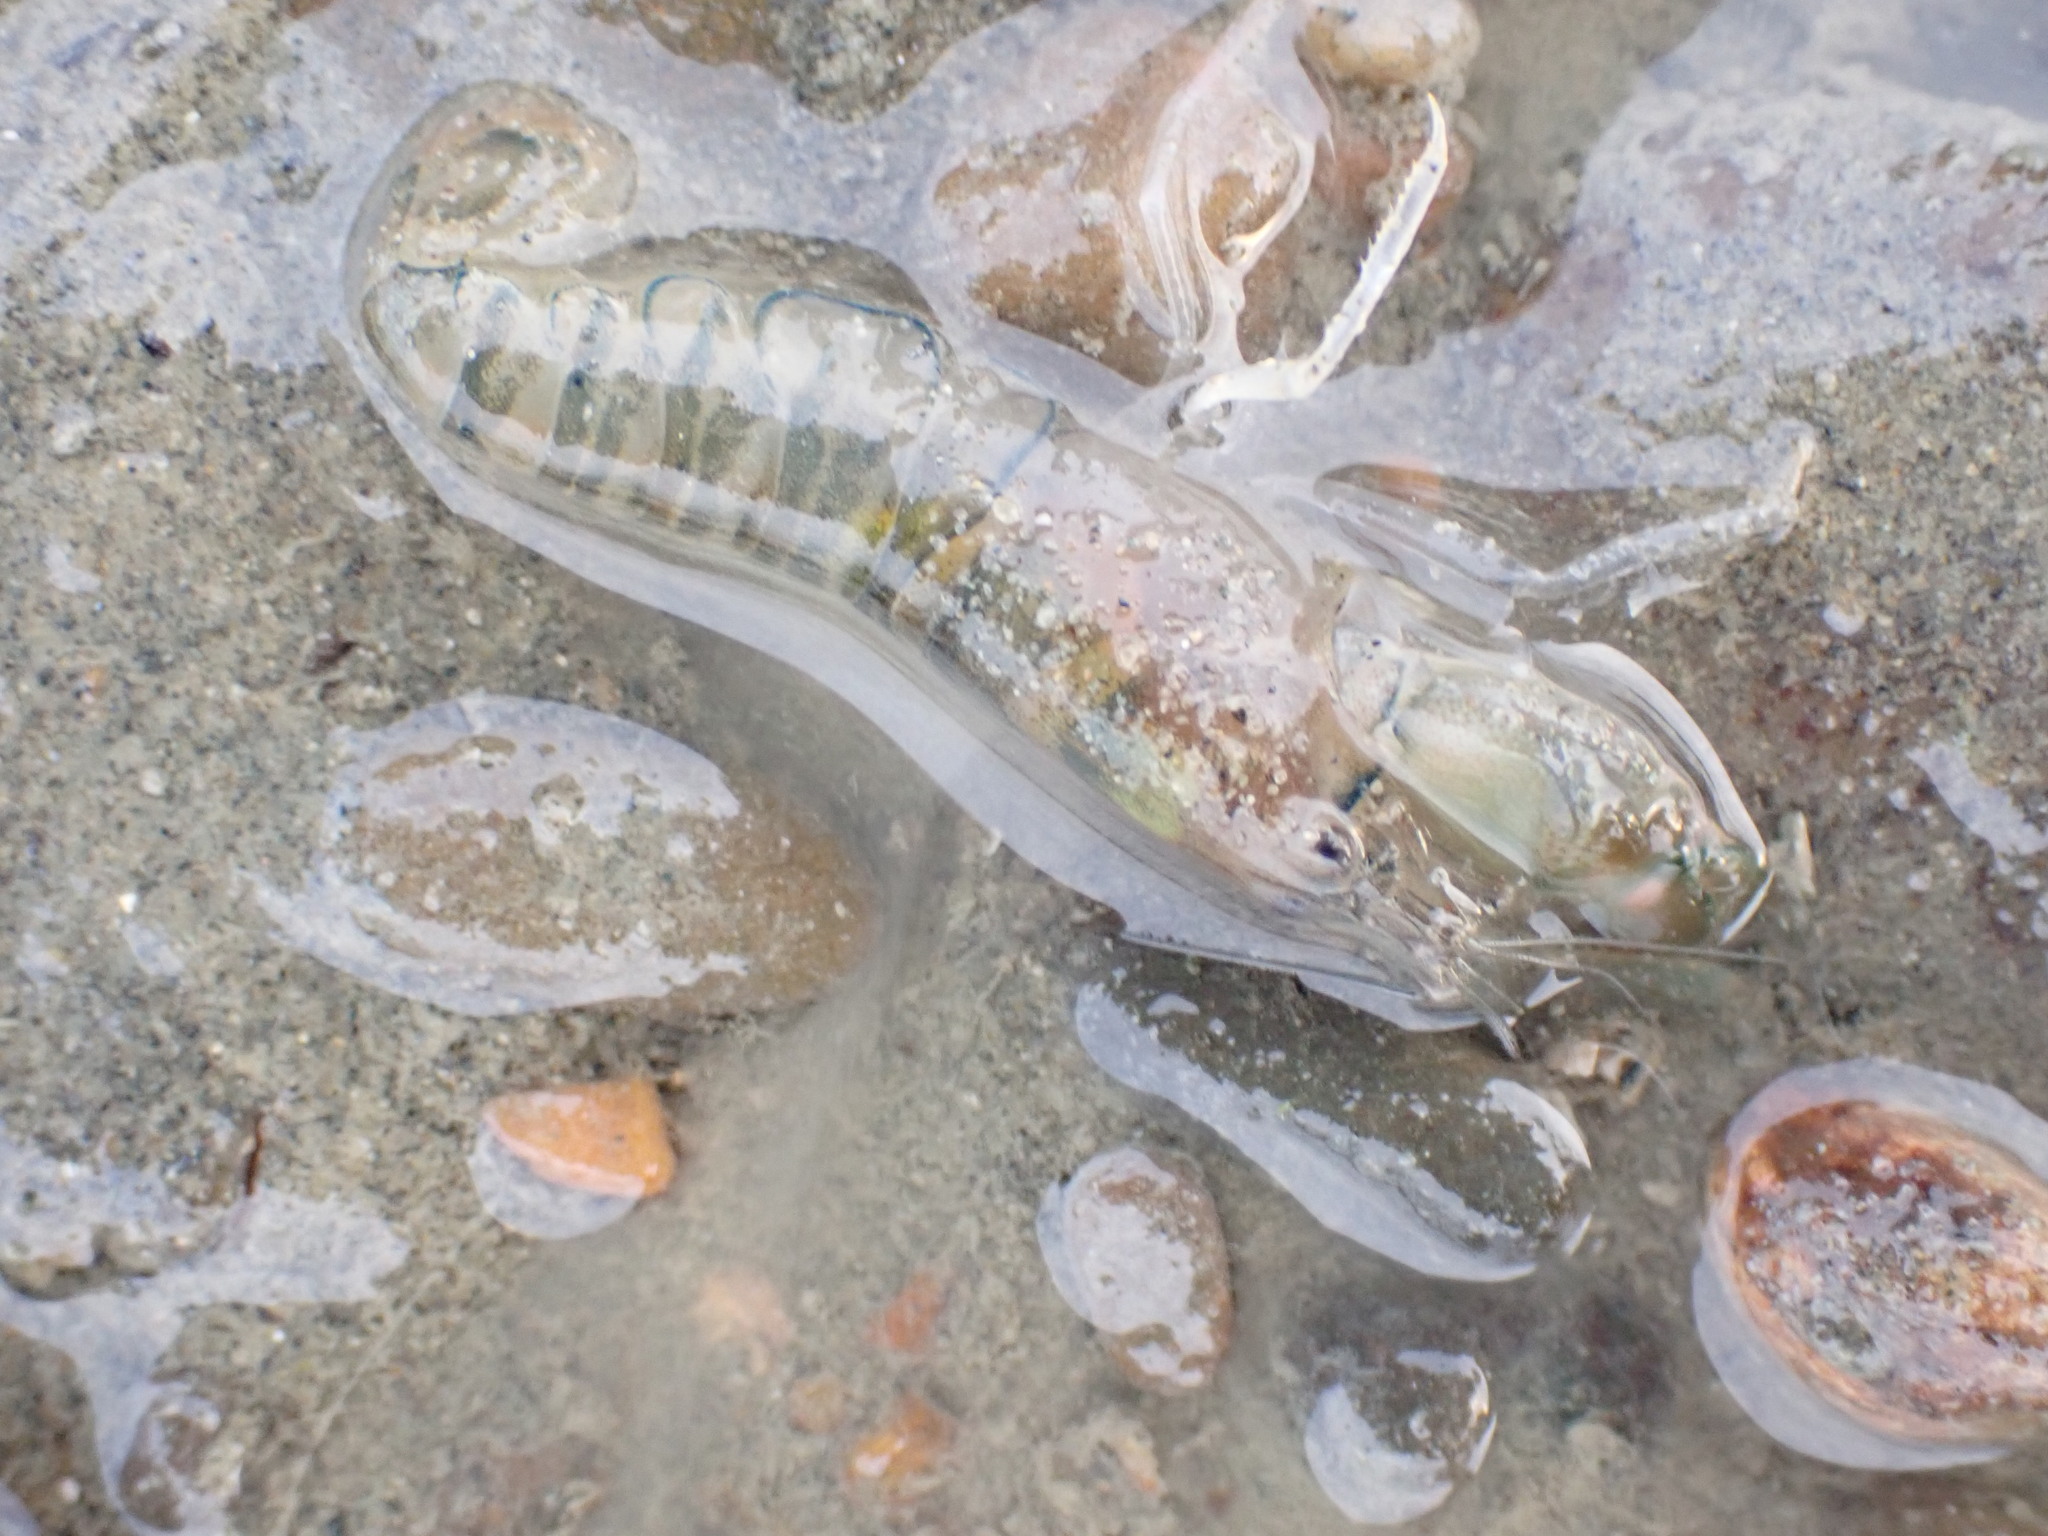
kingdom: Animalia
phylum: Arthropoda
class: Malacostraca
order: Decapoda
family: Alpheidae
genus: Alpheus
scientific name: Alpheus richardsoni
